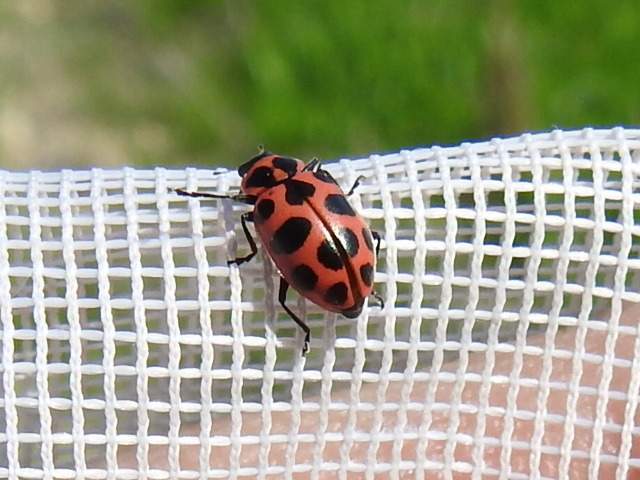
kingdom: Animalia
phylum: Arthropoda
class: Insecta
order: Coleoptera
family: Coccinellidae
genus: Coleomegilla
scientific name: Coleomegilla maculata
